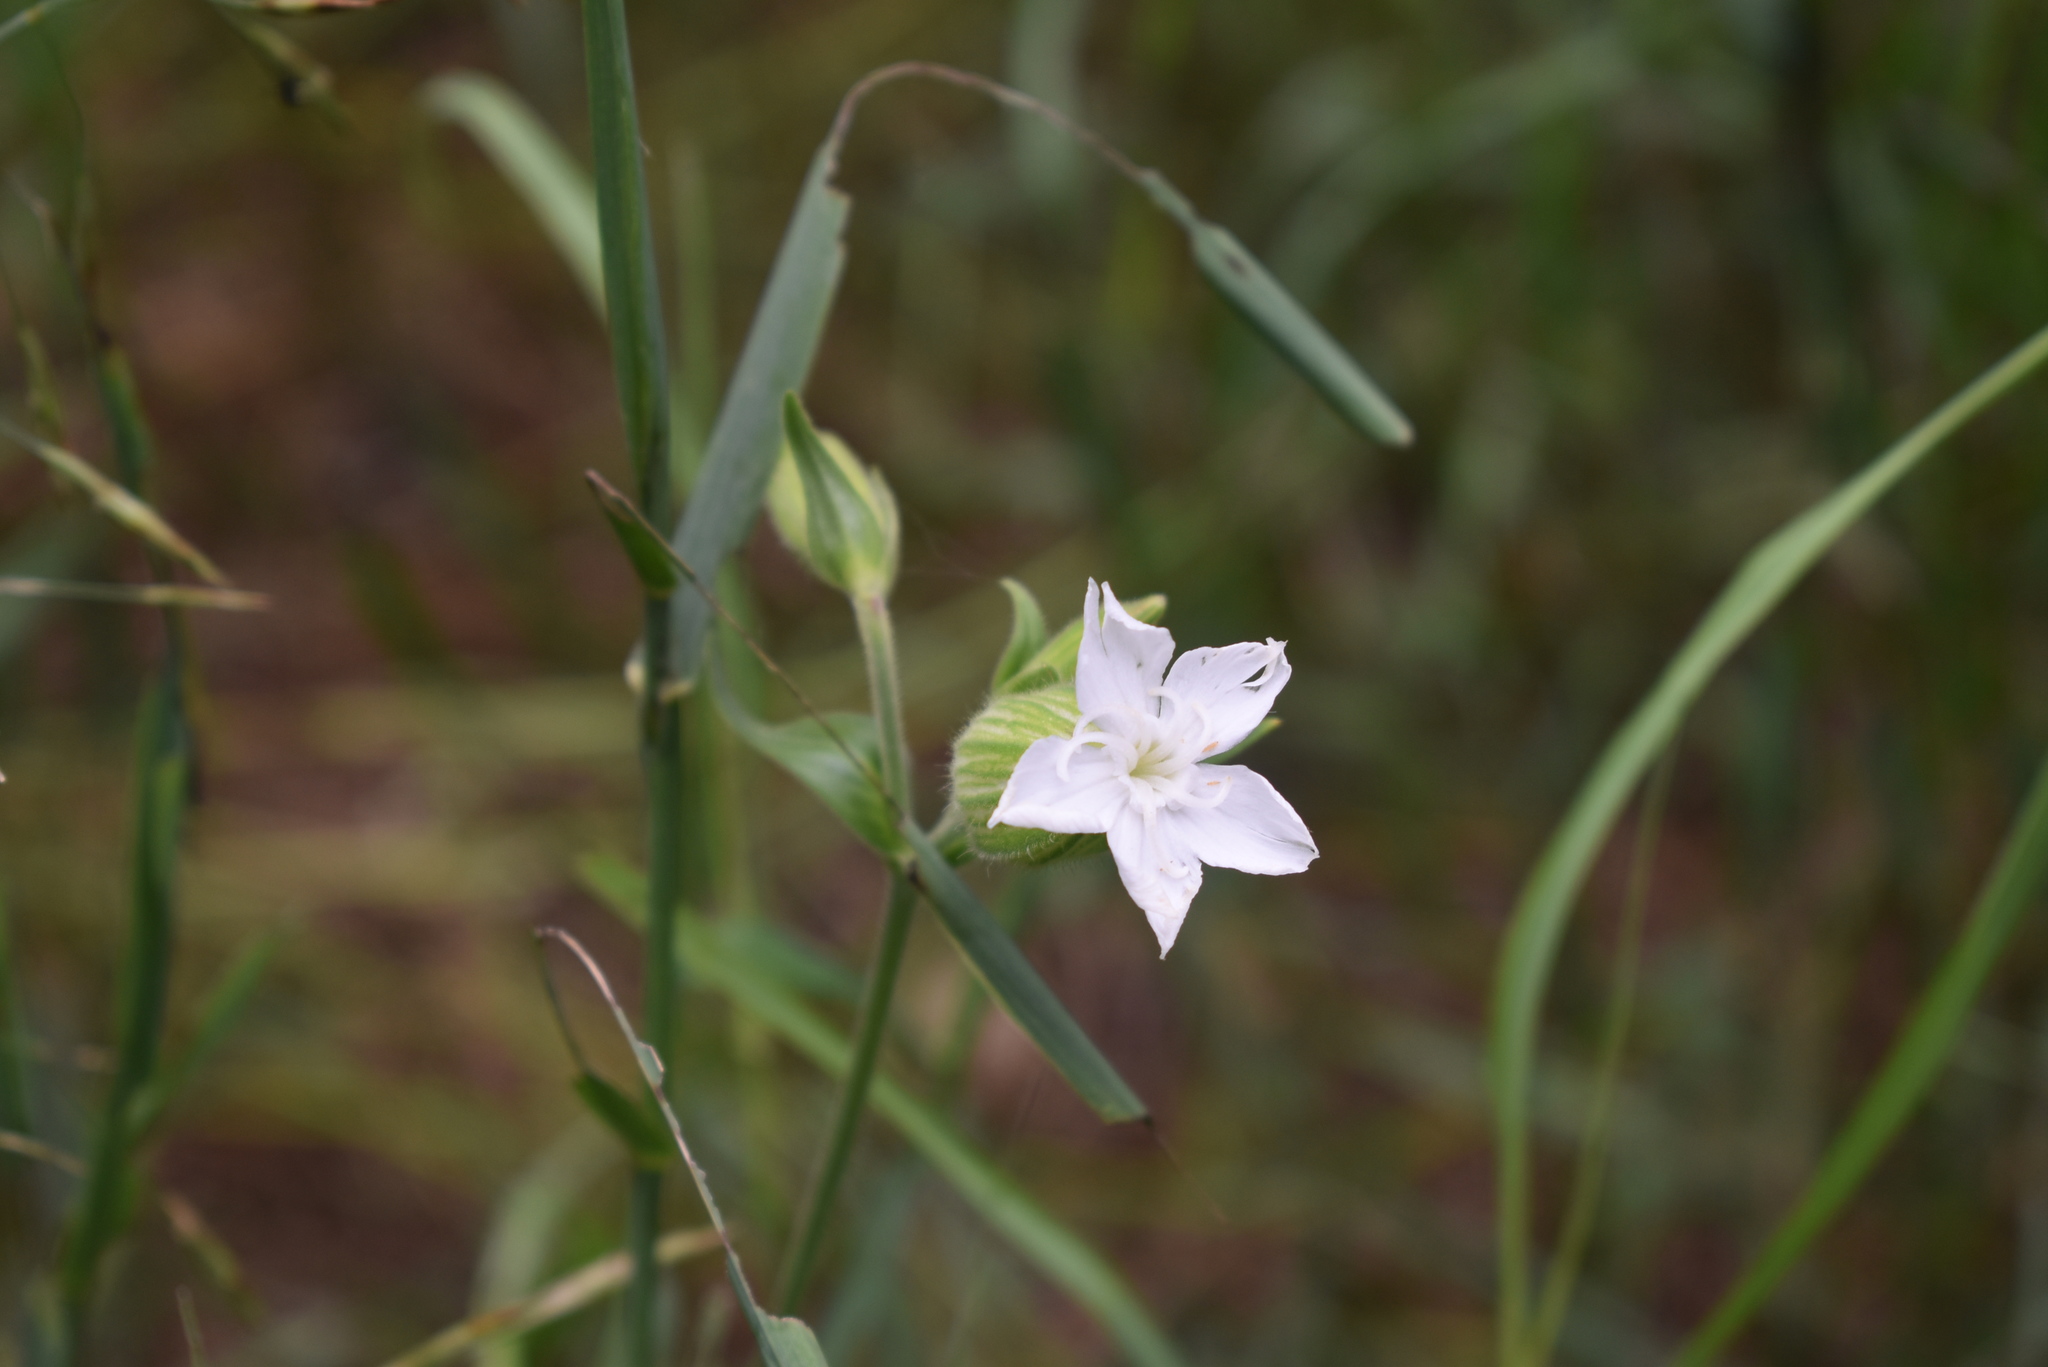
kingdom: Plantae
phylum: Tracheophyta
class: Magnoliopsida
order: Caryophyllales
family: Caryophyllaceae
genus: Silene
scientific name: Silene latifolia
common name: White campion
